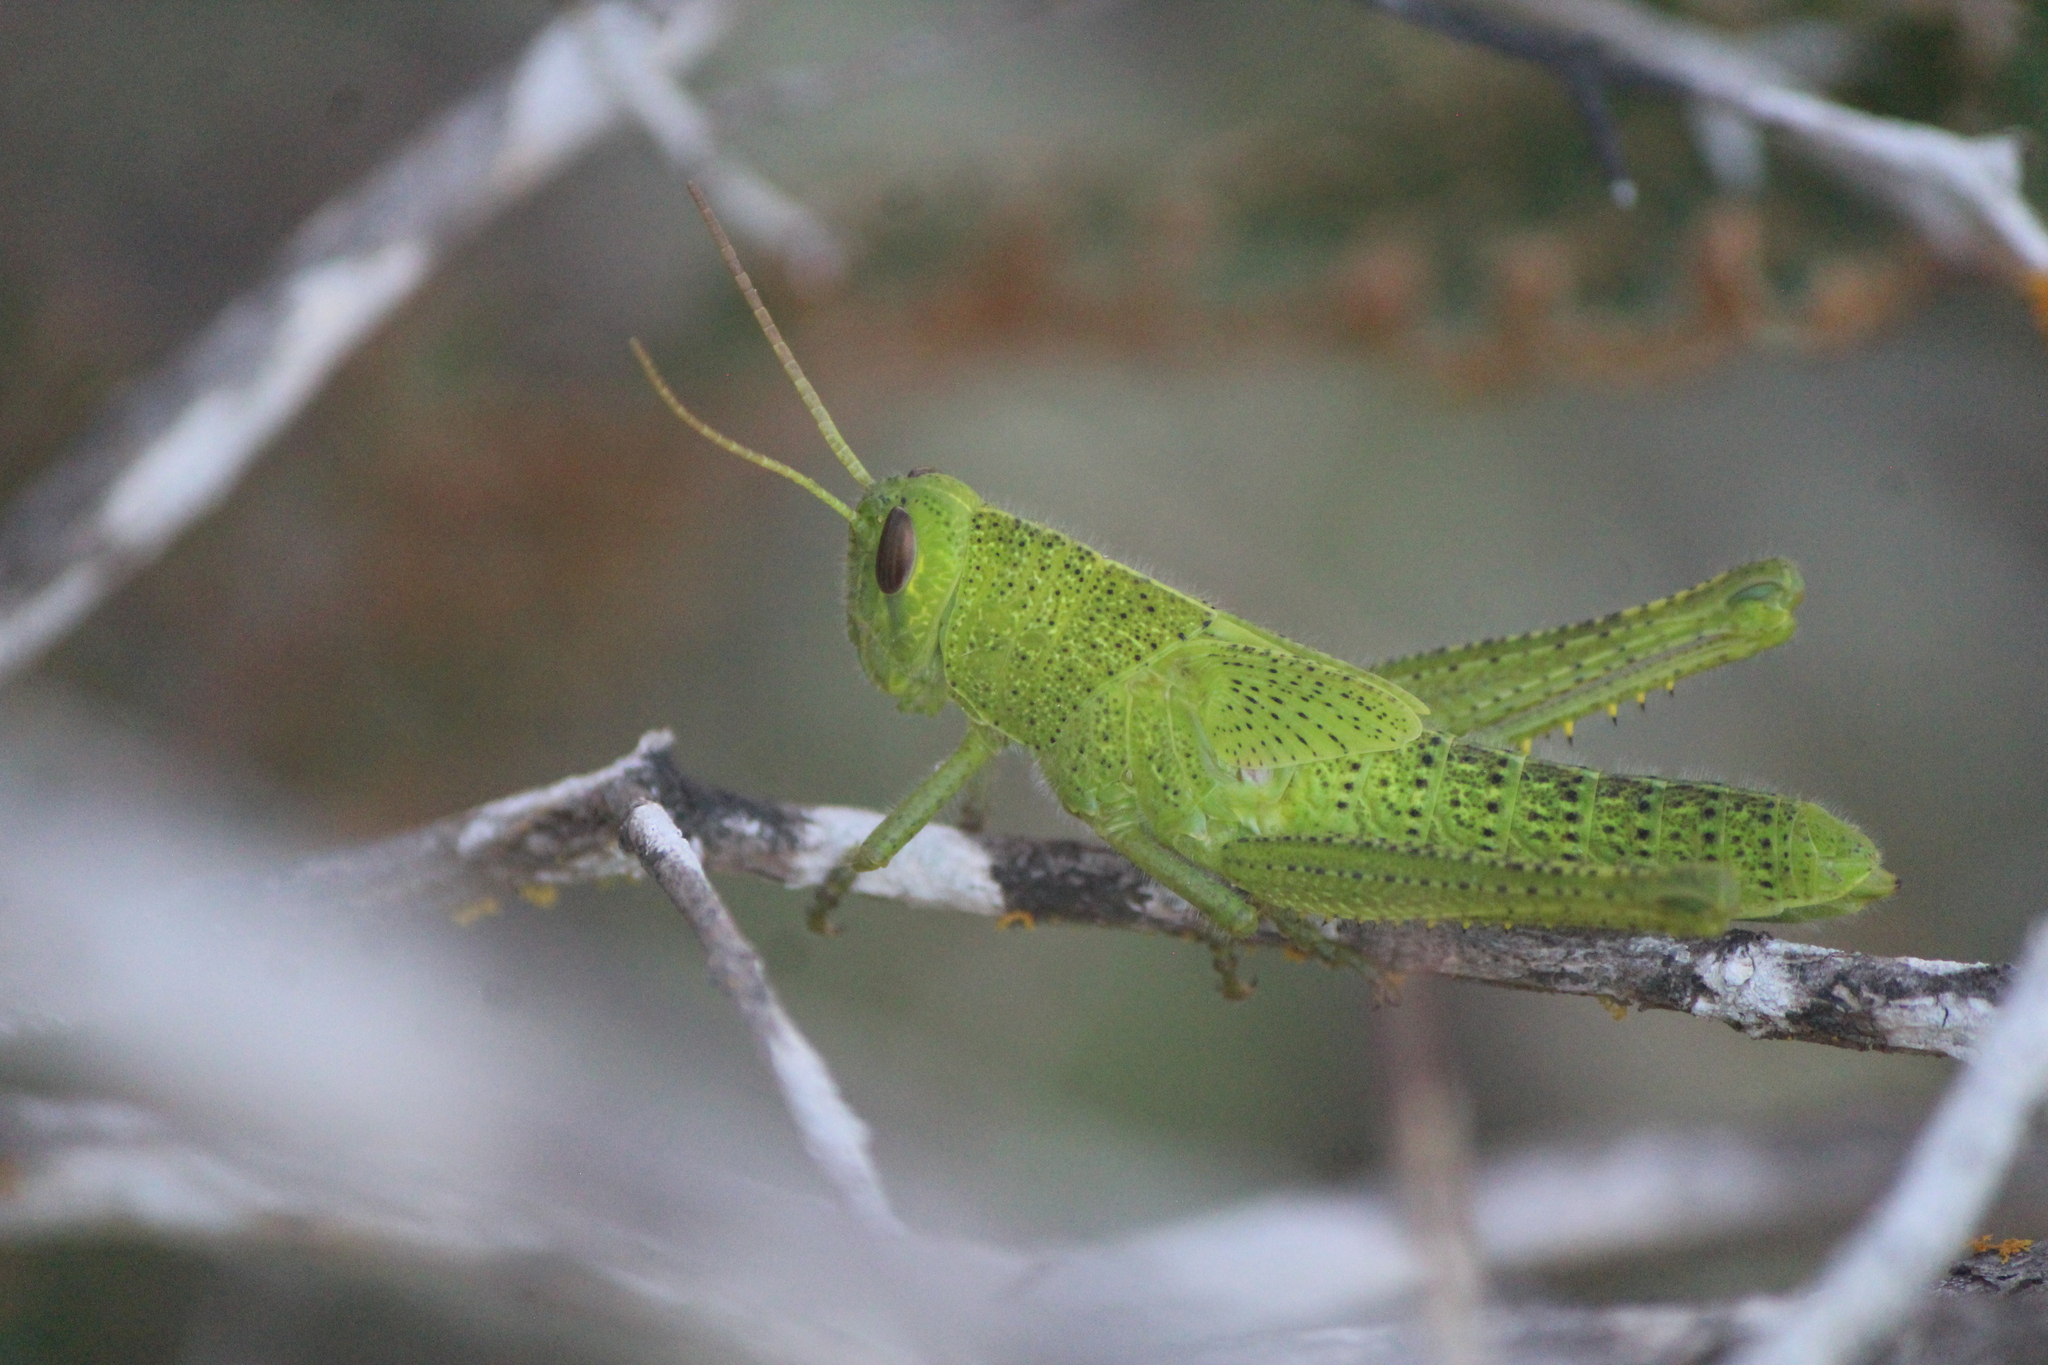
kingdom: Animalia
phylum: Arthropoda
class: Insecta
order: Orthoptera
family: Acrididae
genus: Schistocerca
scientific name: Schistocerca cohni
